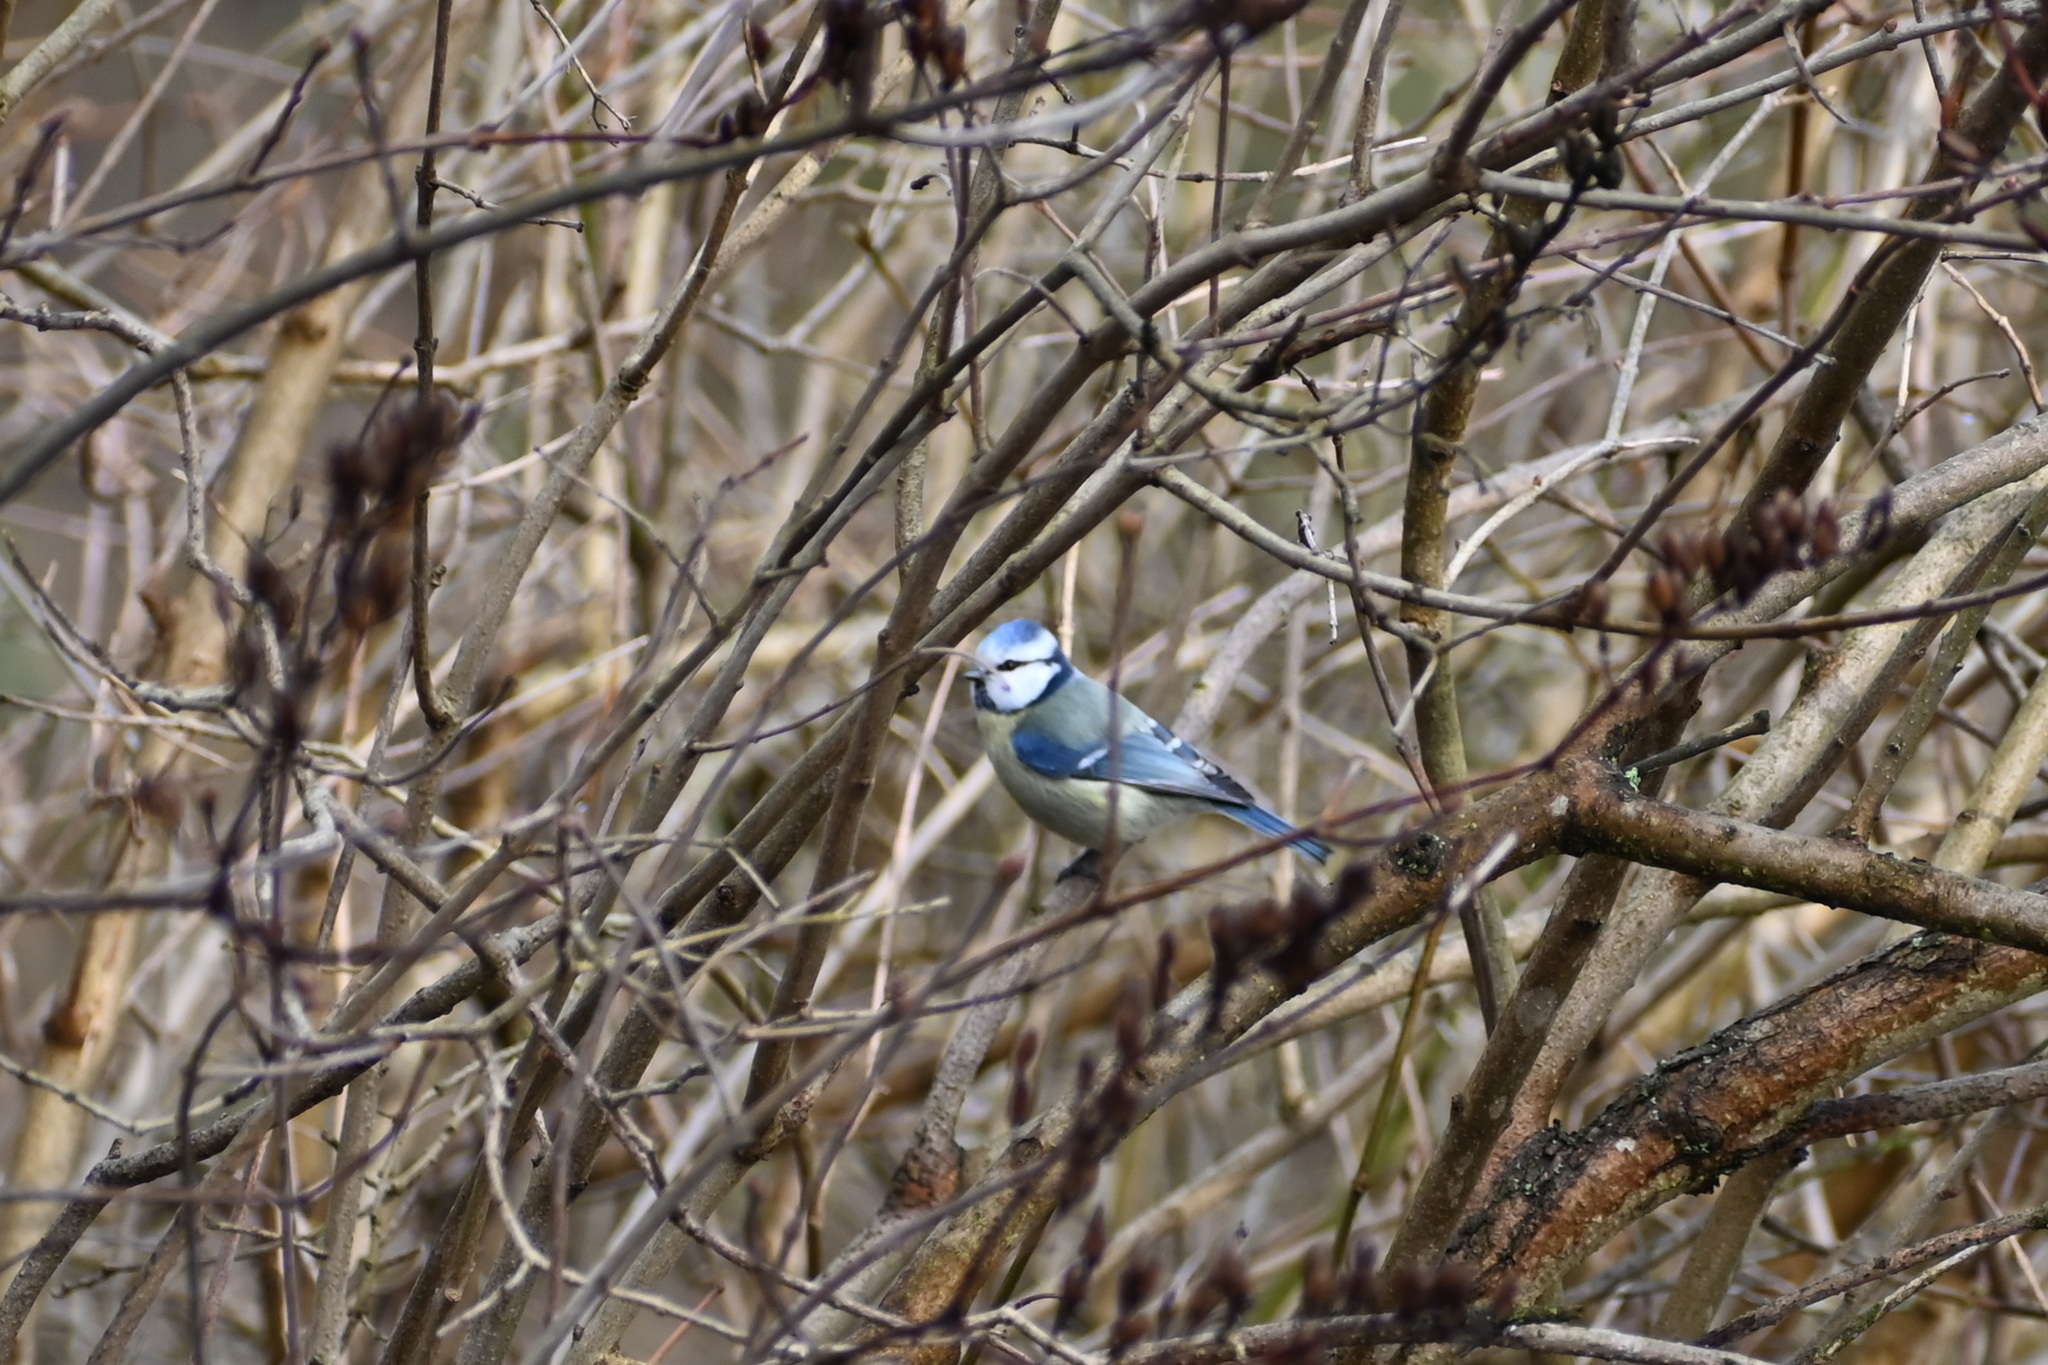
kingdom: Animalia
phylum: Chordata
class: Aves
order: Passeriformes
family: Paridae
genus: Cyanistes
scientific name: Cyanistes caeruleus
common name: Eurasian blue tit
